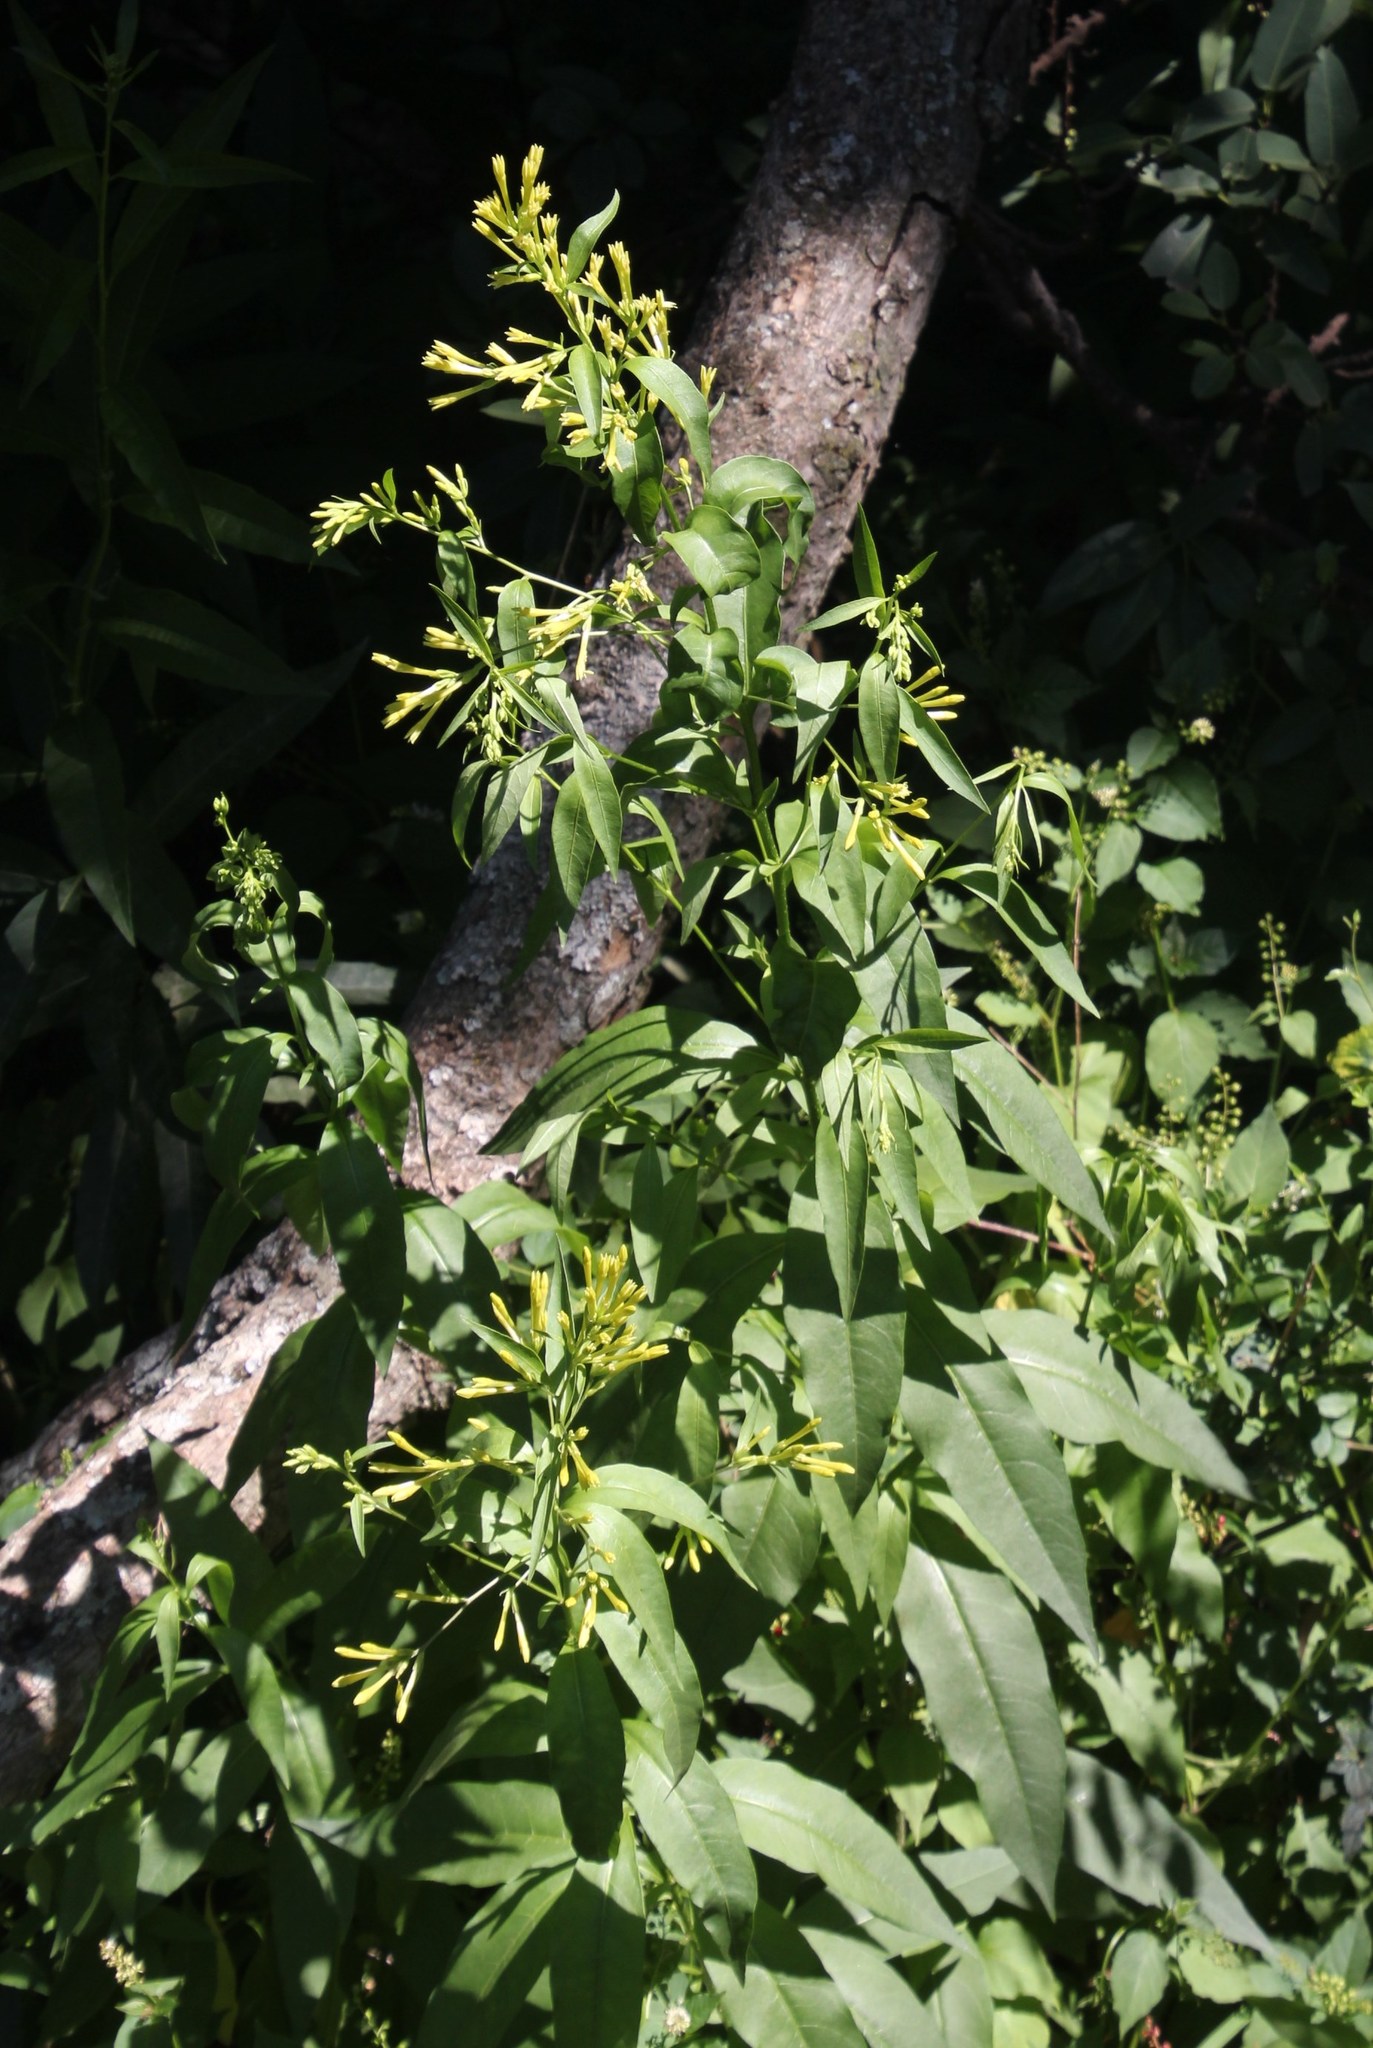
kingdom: Plantae
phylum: Tracheophyta
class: Magnoliopsida
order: Solanales
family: Solanaceae
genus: Cestrum
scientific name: Cestrum parqui
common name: Chilean cestrum
